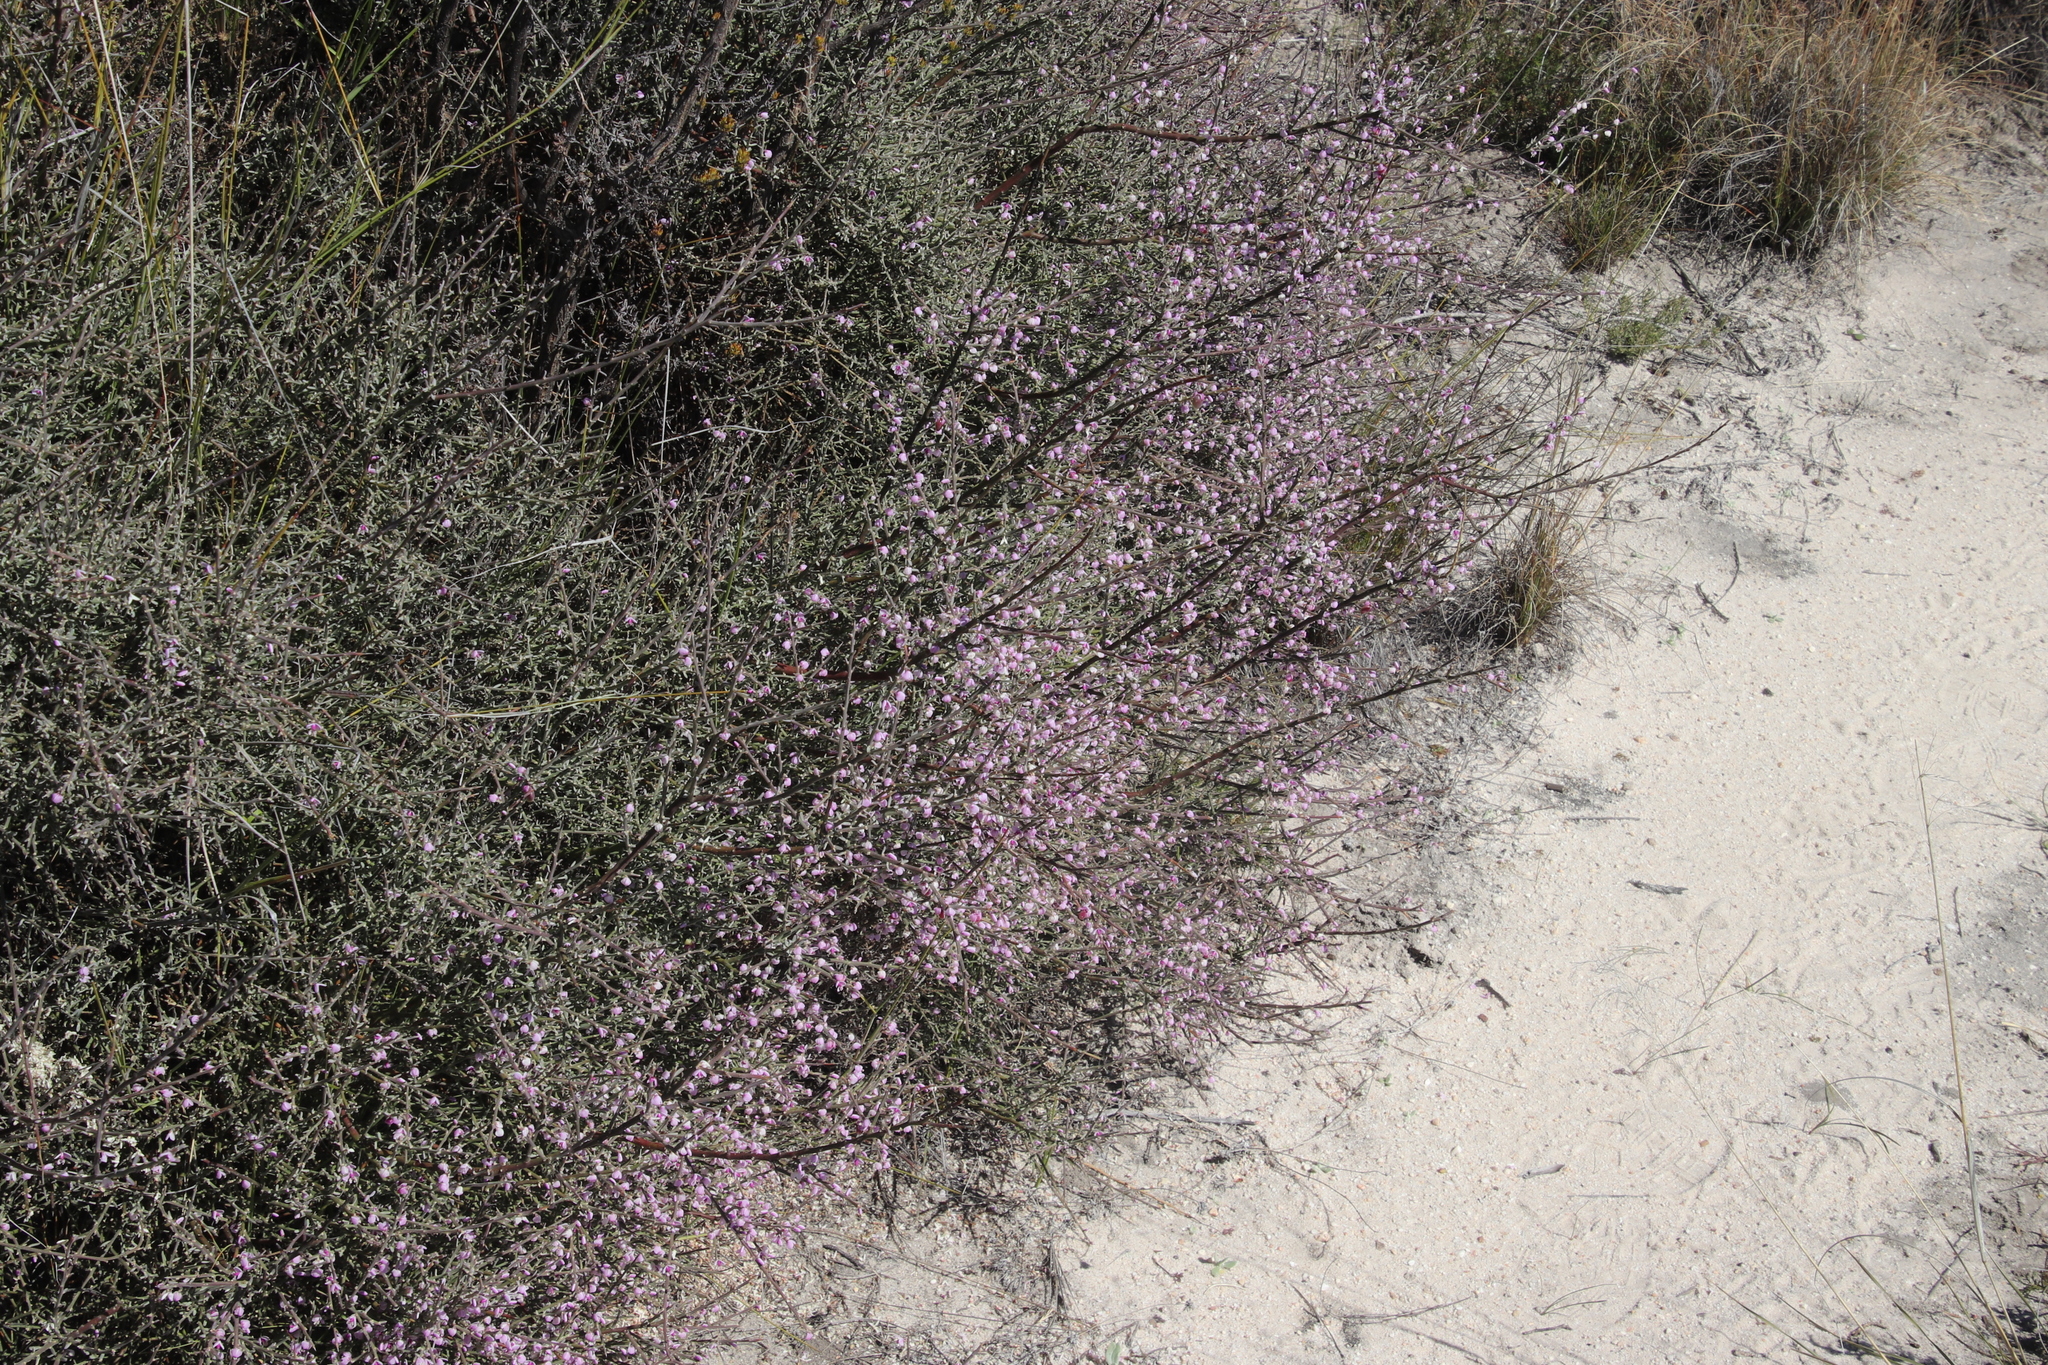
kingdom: Plantae
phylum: Tracheophyta
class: Magnoliopsida
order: Fabales
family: Polygalaceae
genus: Muraltia
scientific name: Muraltia spinosa
